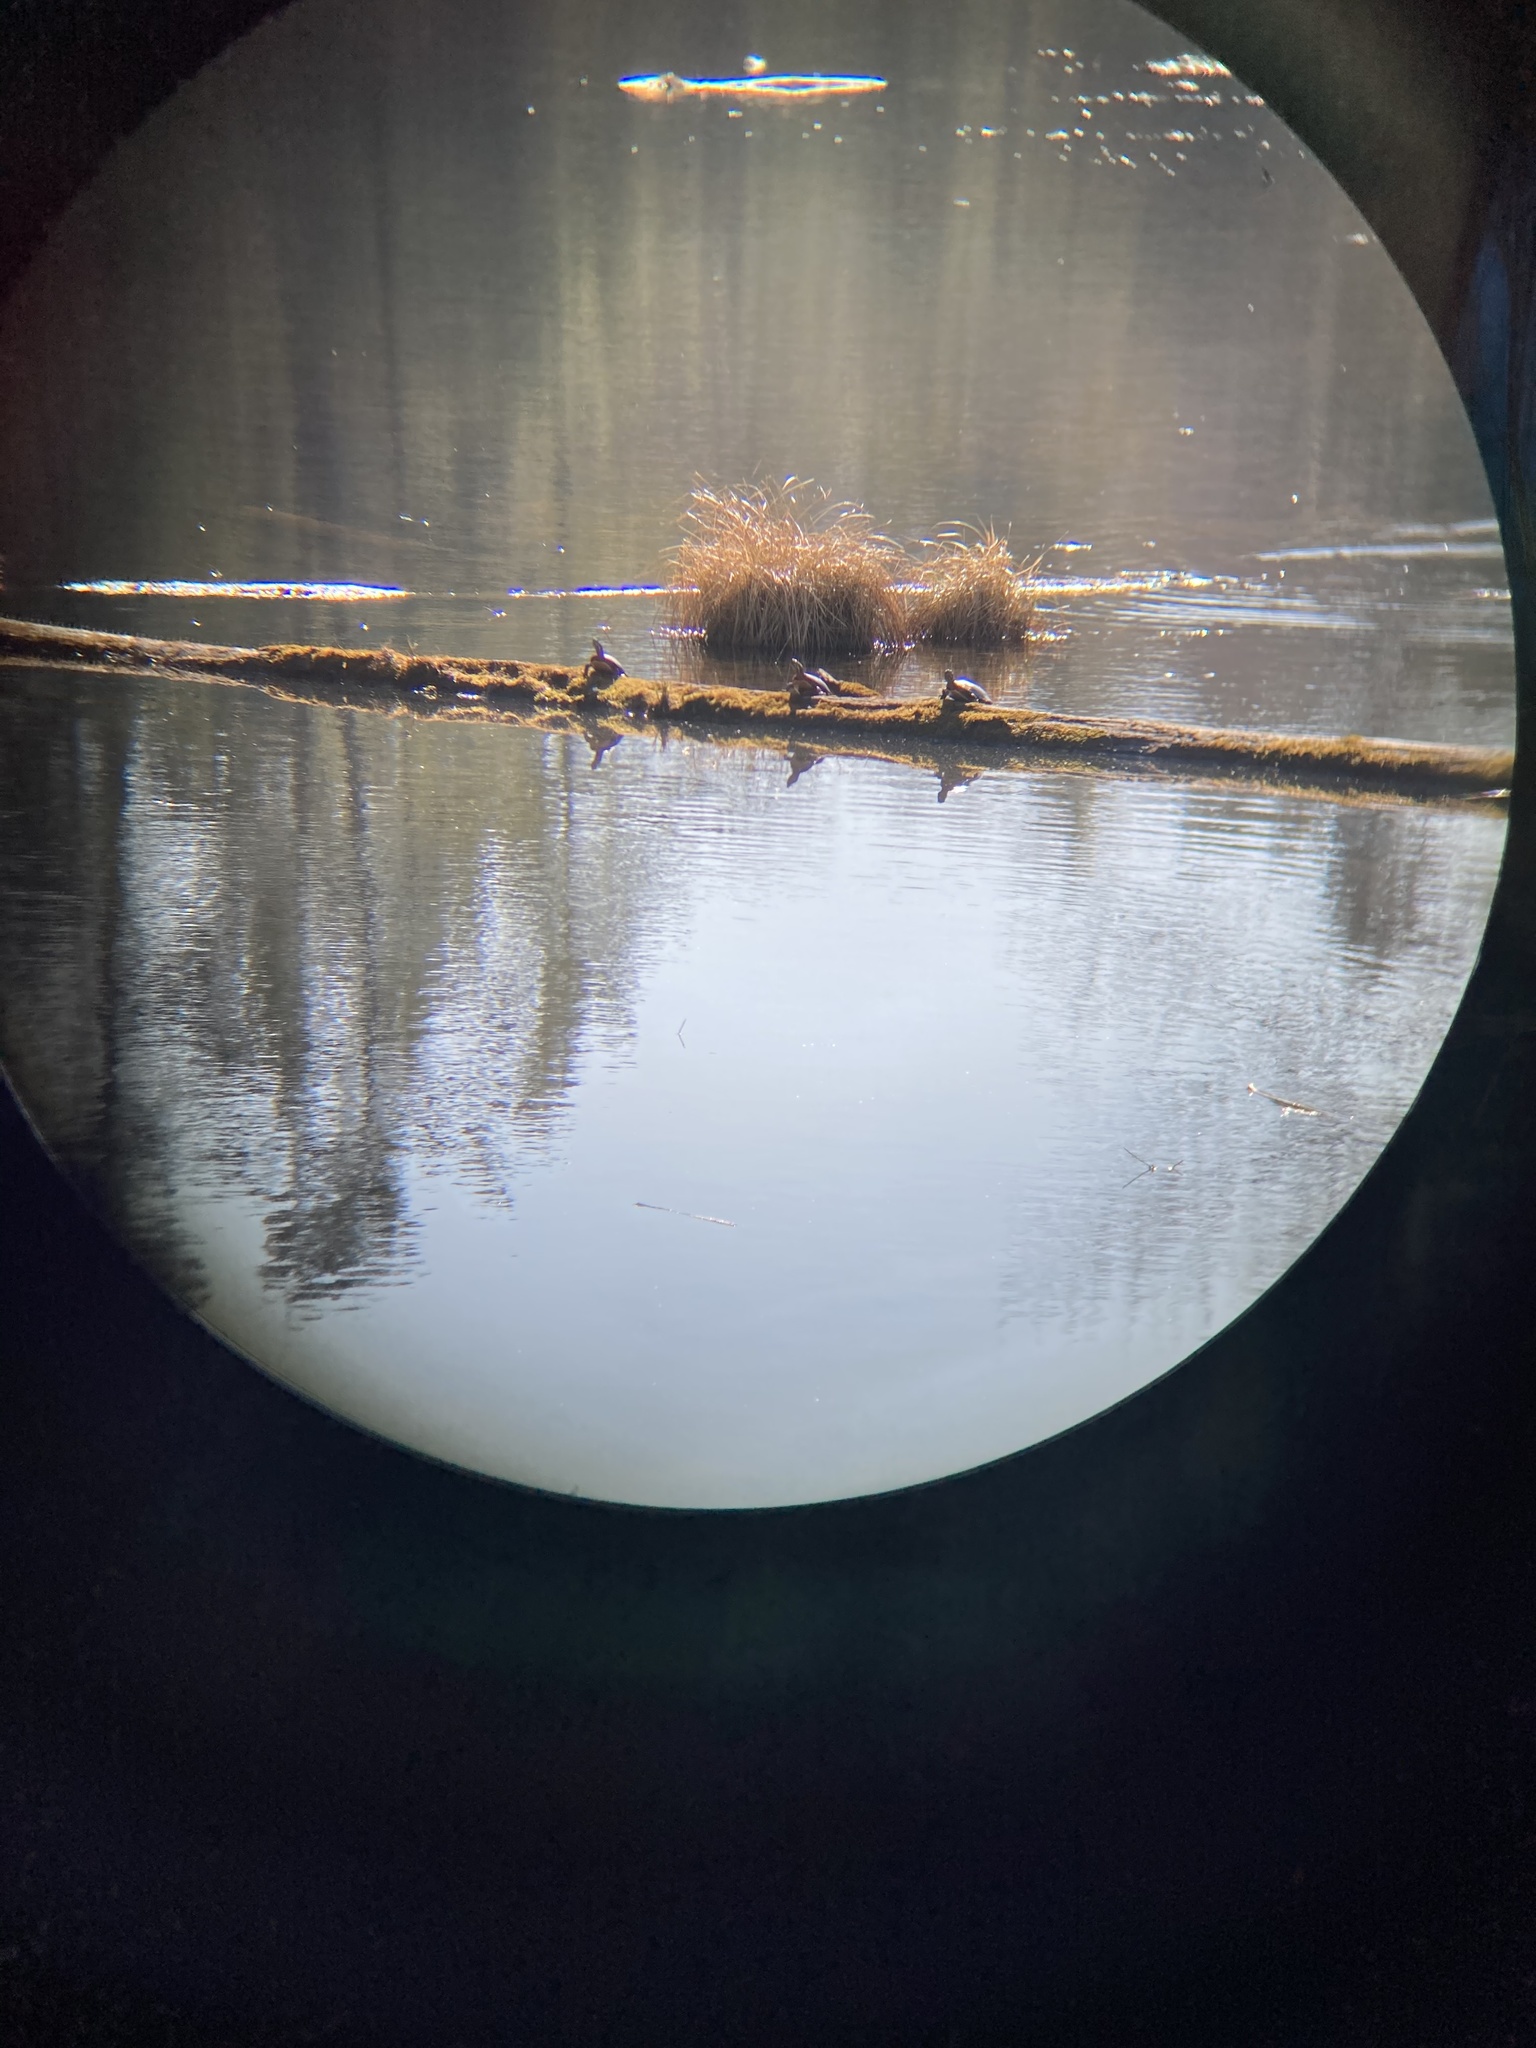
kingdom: Animalia
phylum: Chordata
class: Testudines
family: Emydidae
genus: Chrysemys
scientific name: Chrysemys picta
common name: Painted turtle
